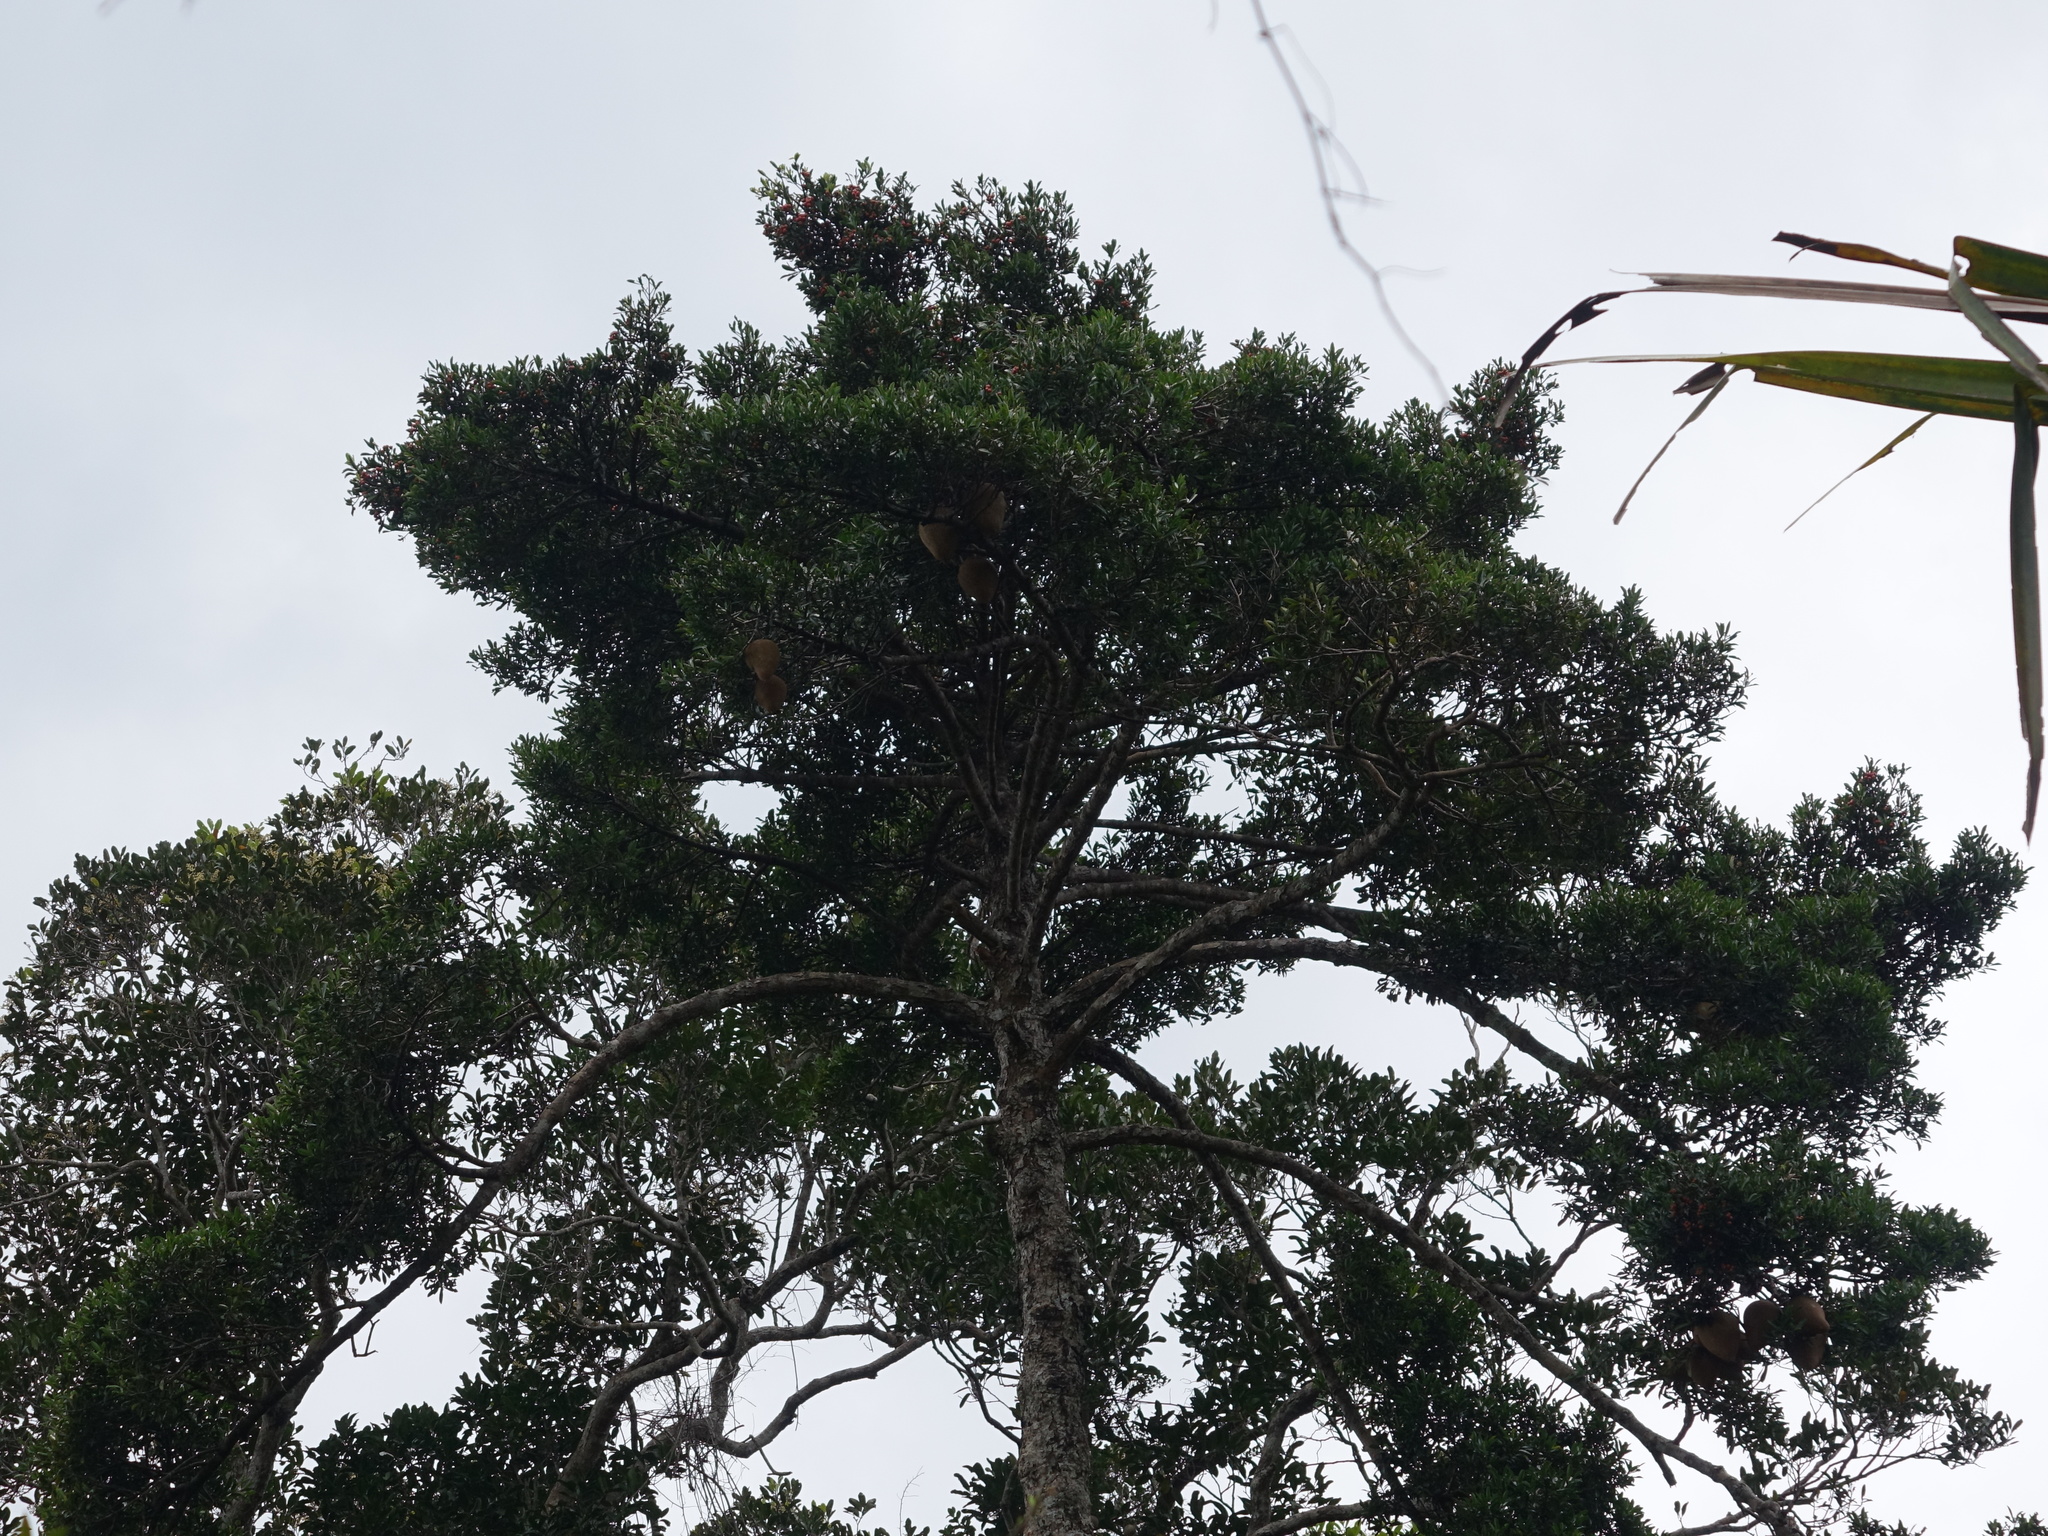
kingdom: Plantae
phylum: Tracheophyta
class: Magnoliopsida
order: Malpighiales
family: Clusiaceae
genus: Symphonia
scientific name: Symphonia louvelii
